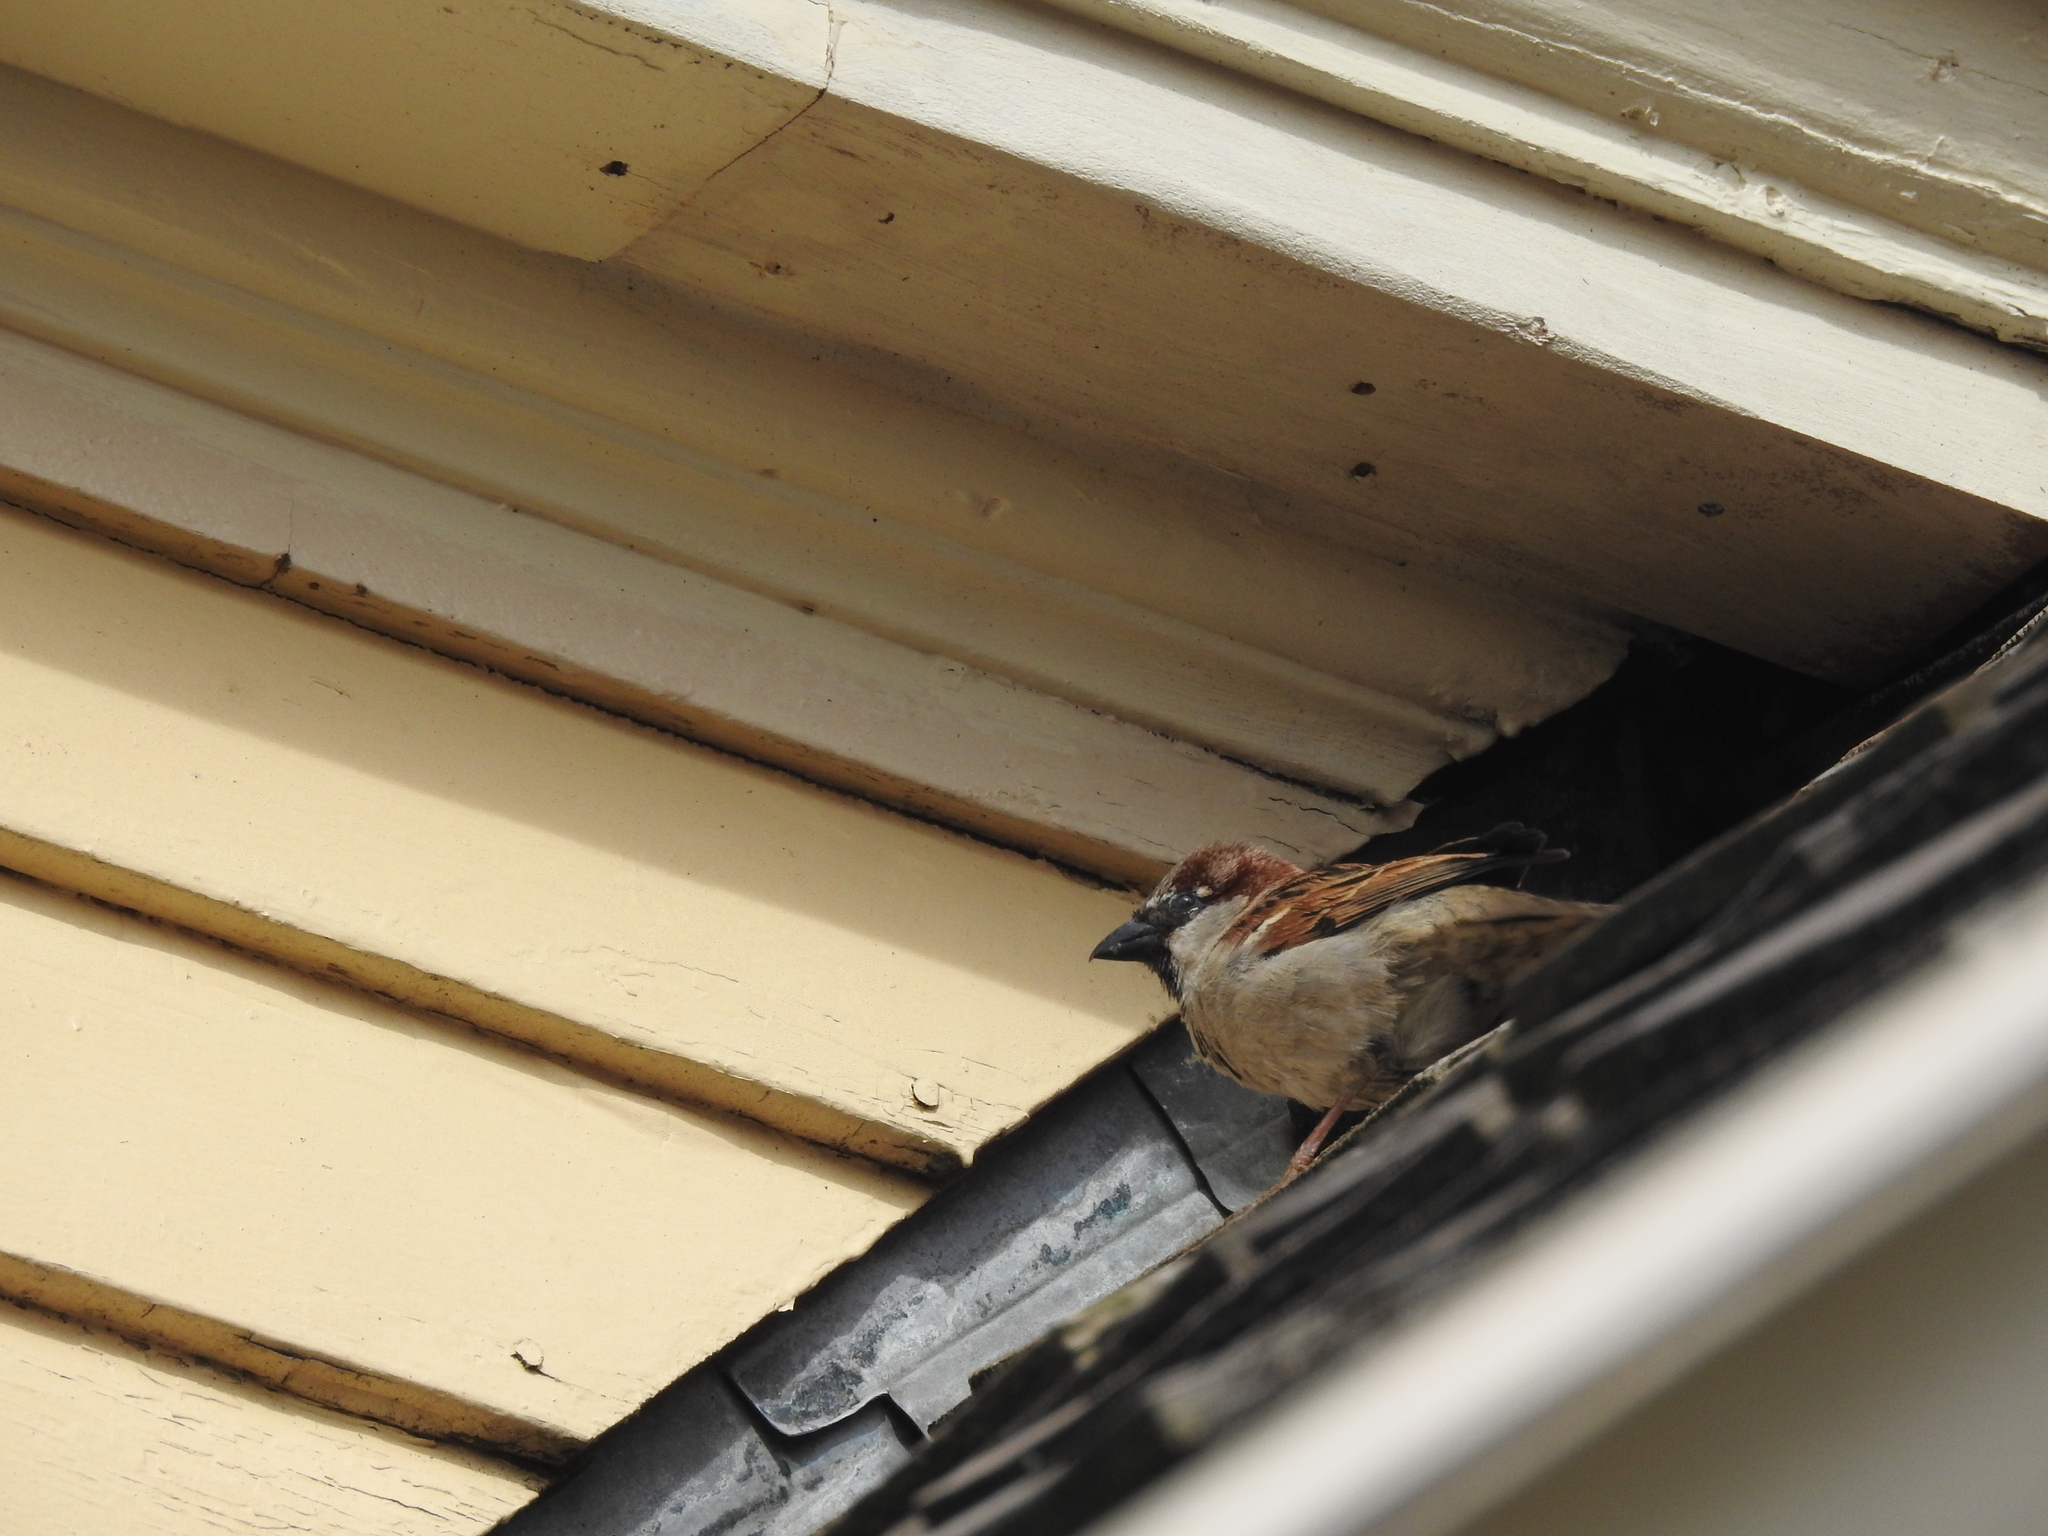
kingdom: Animalia
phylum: Chordata
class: Aves
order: Passeriformes
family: Passeridae
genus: Passer
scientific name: Passer domesticus
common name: House sparrow
